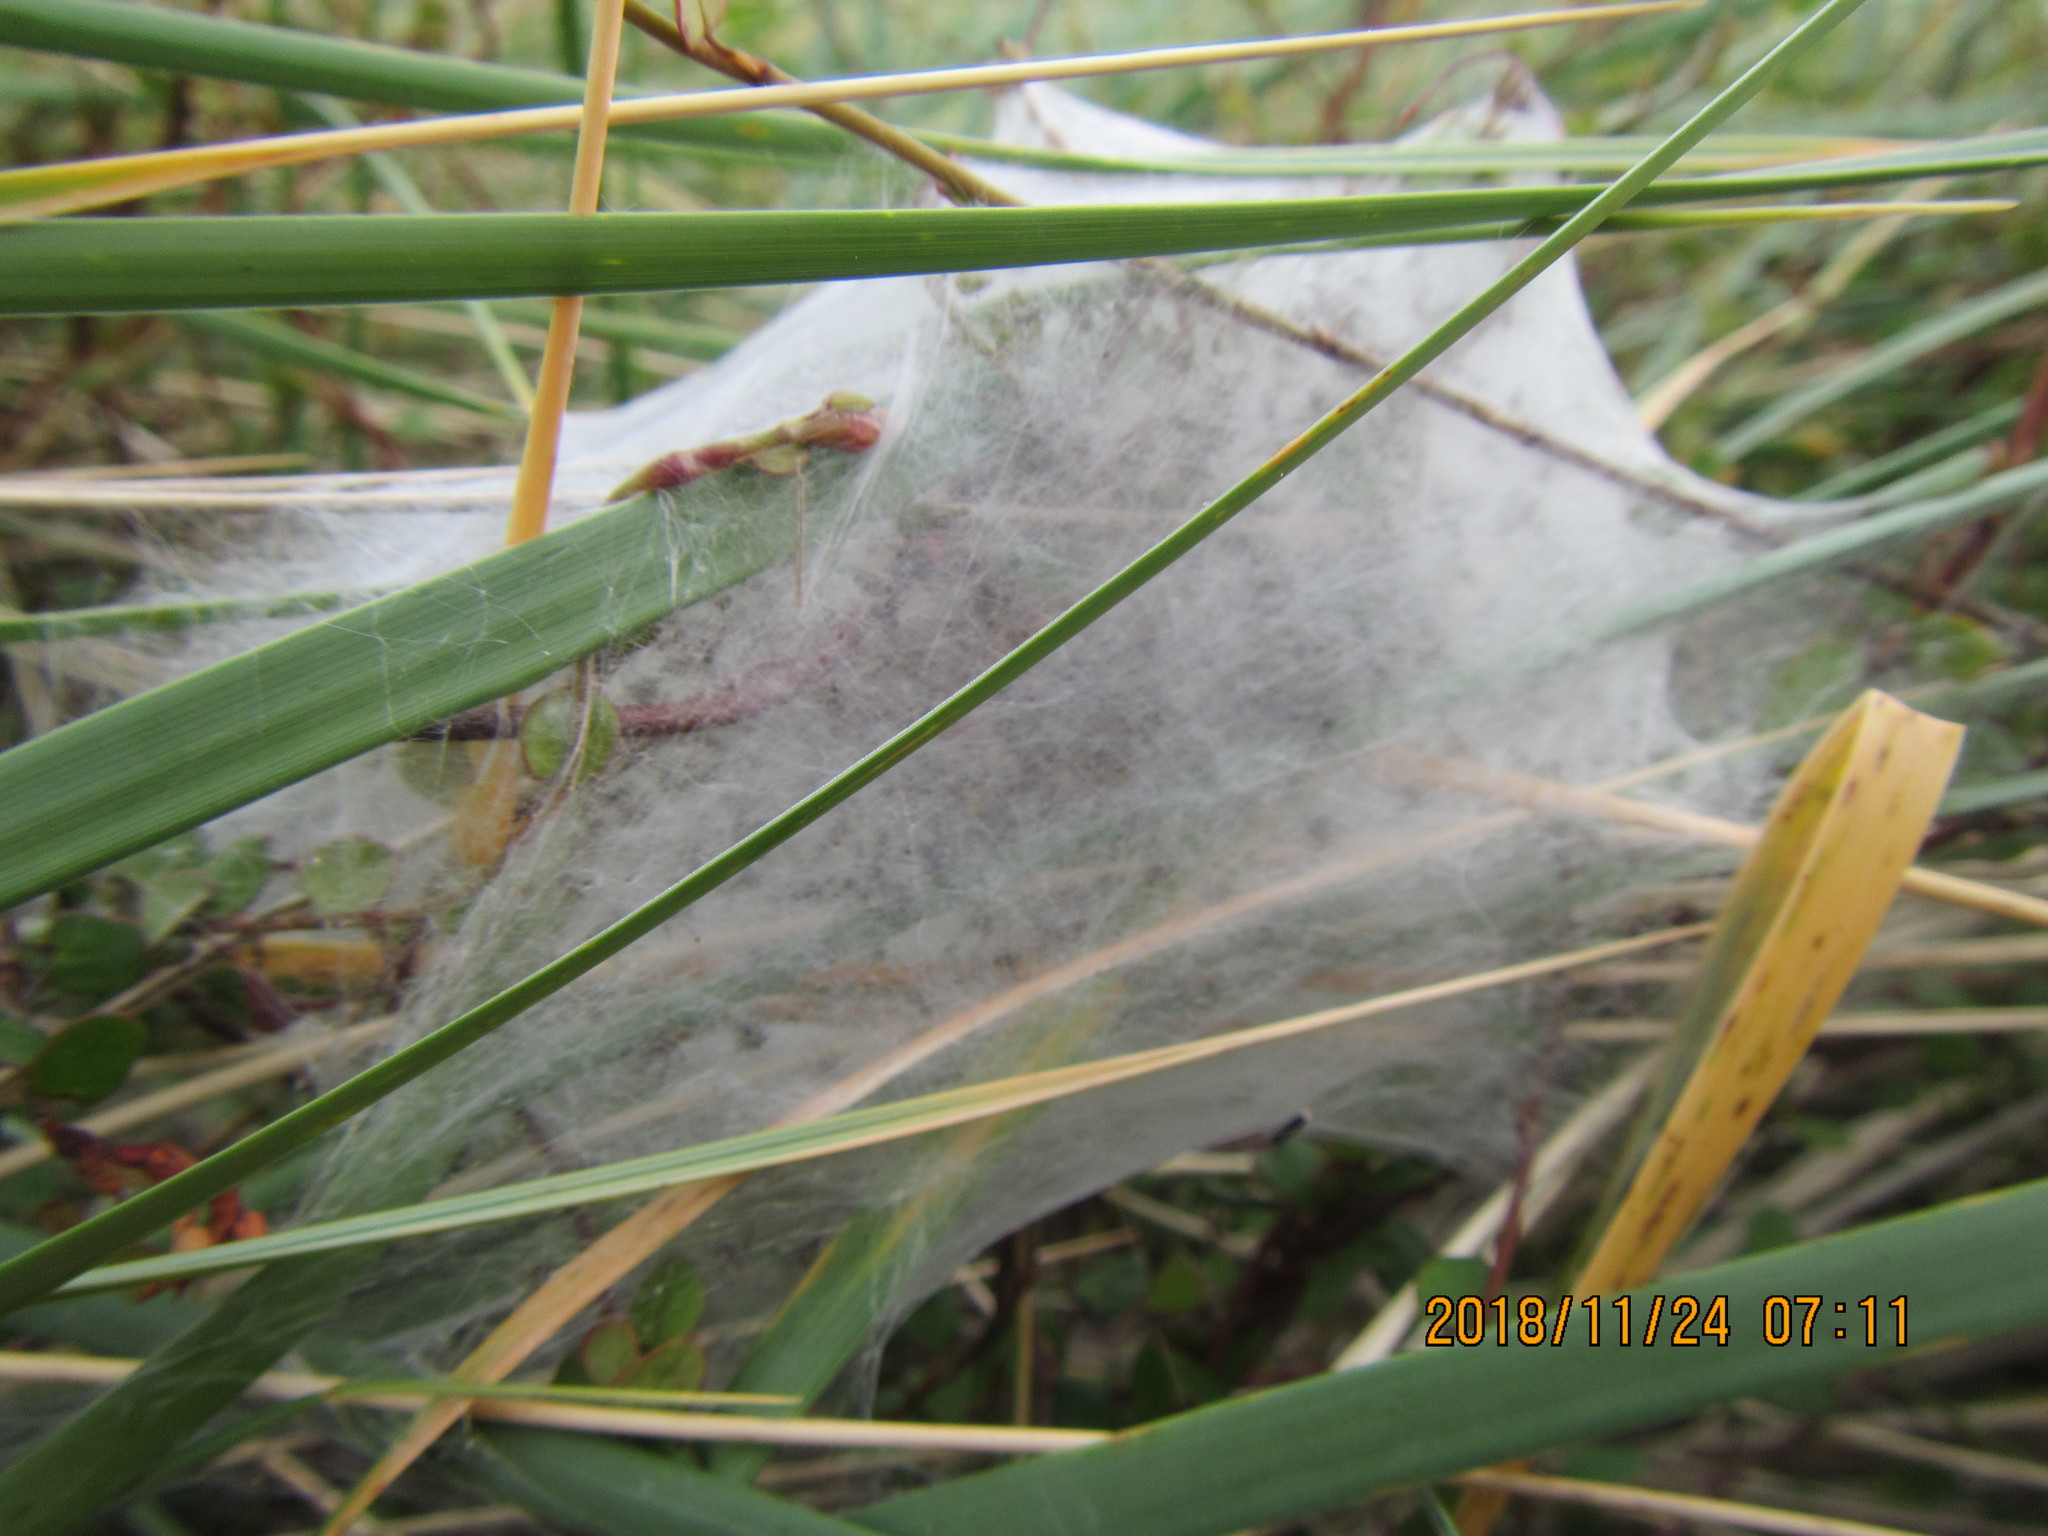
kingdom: Animalia
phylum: Arthropoda
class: Arachnida
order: Araneae
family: Pisauridae
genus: Dolomedes
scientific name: Dolomedes minor
